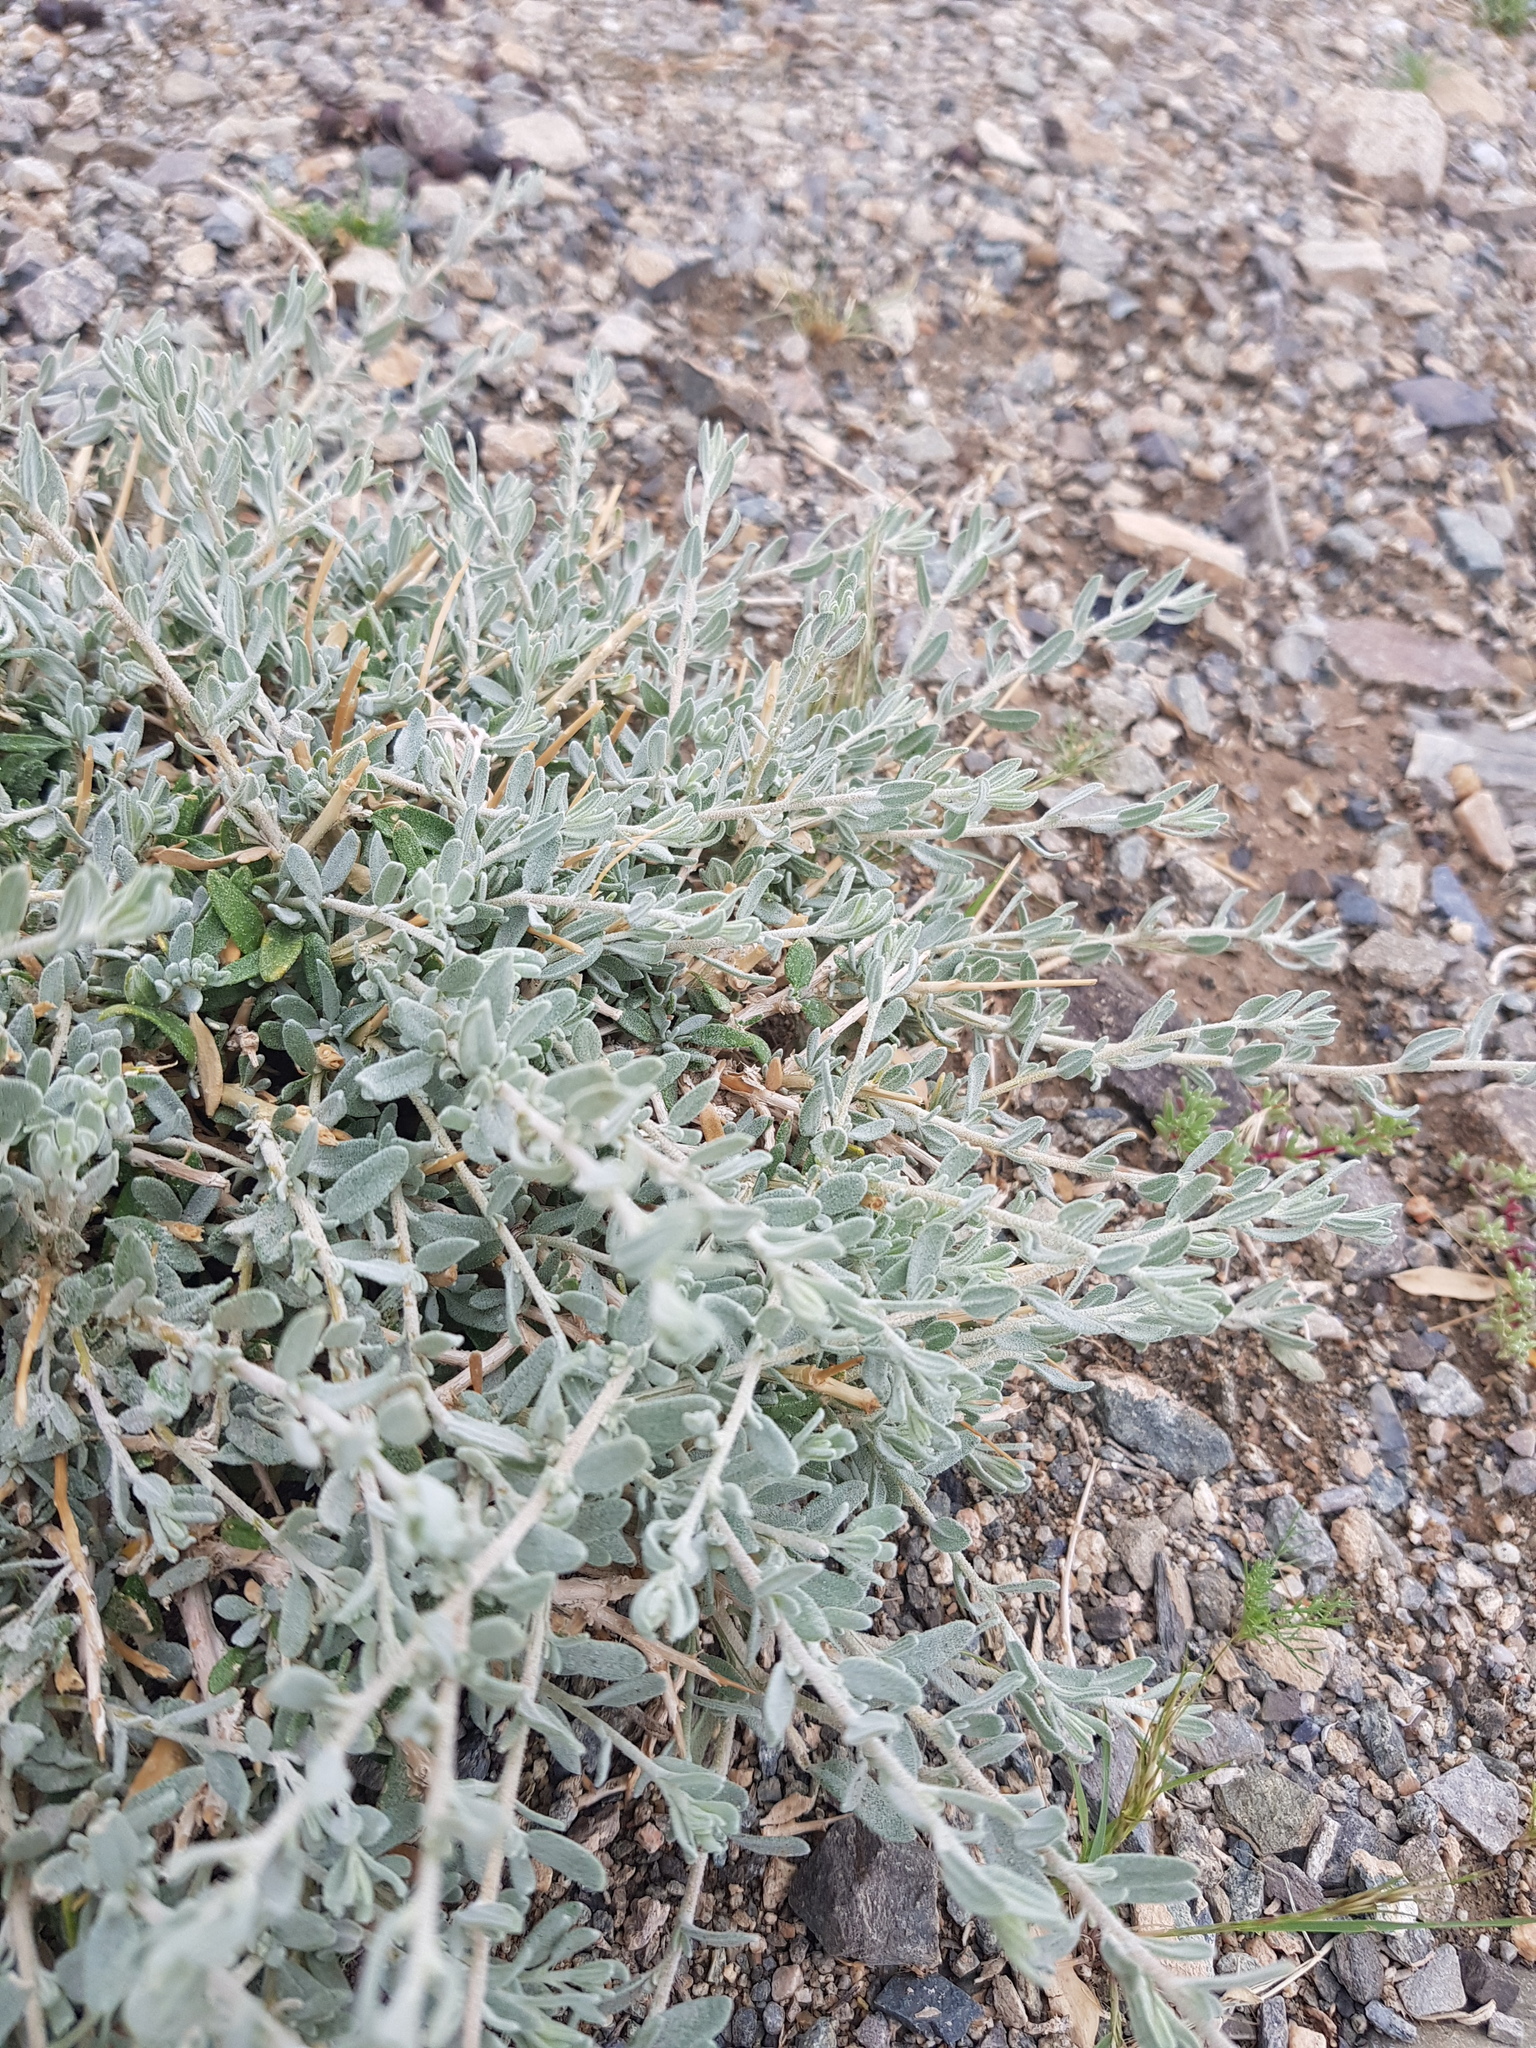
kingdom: Plantae
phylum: Tracheophyta
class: Magnoliopsida
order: Caryophyllales
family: Amaranthaceae
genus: Krascheninnikovia
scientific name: Krascheninnikovia ceratoides
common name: Pamirian winterfat
